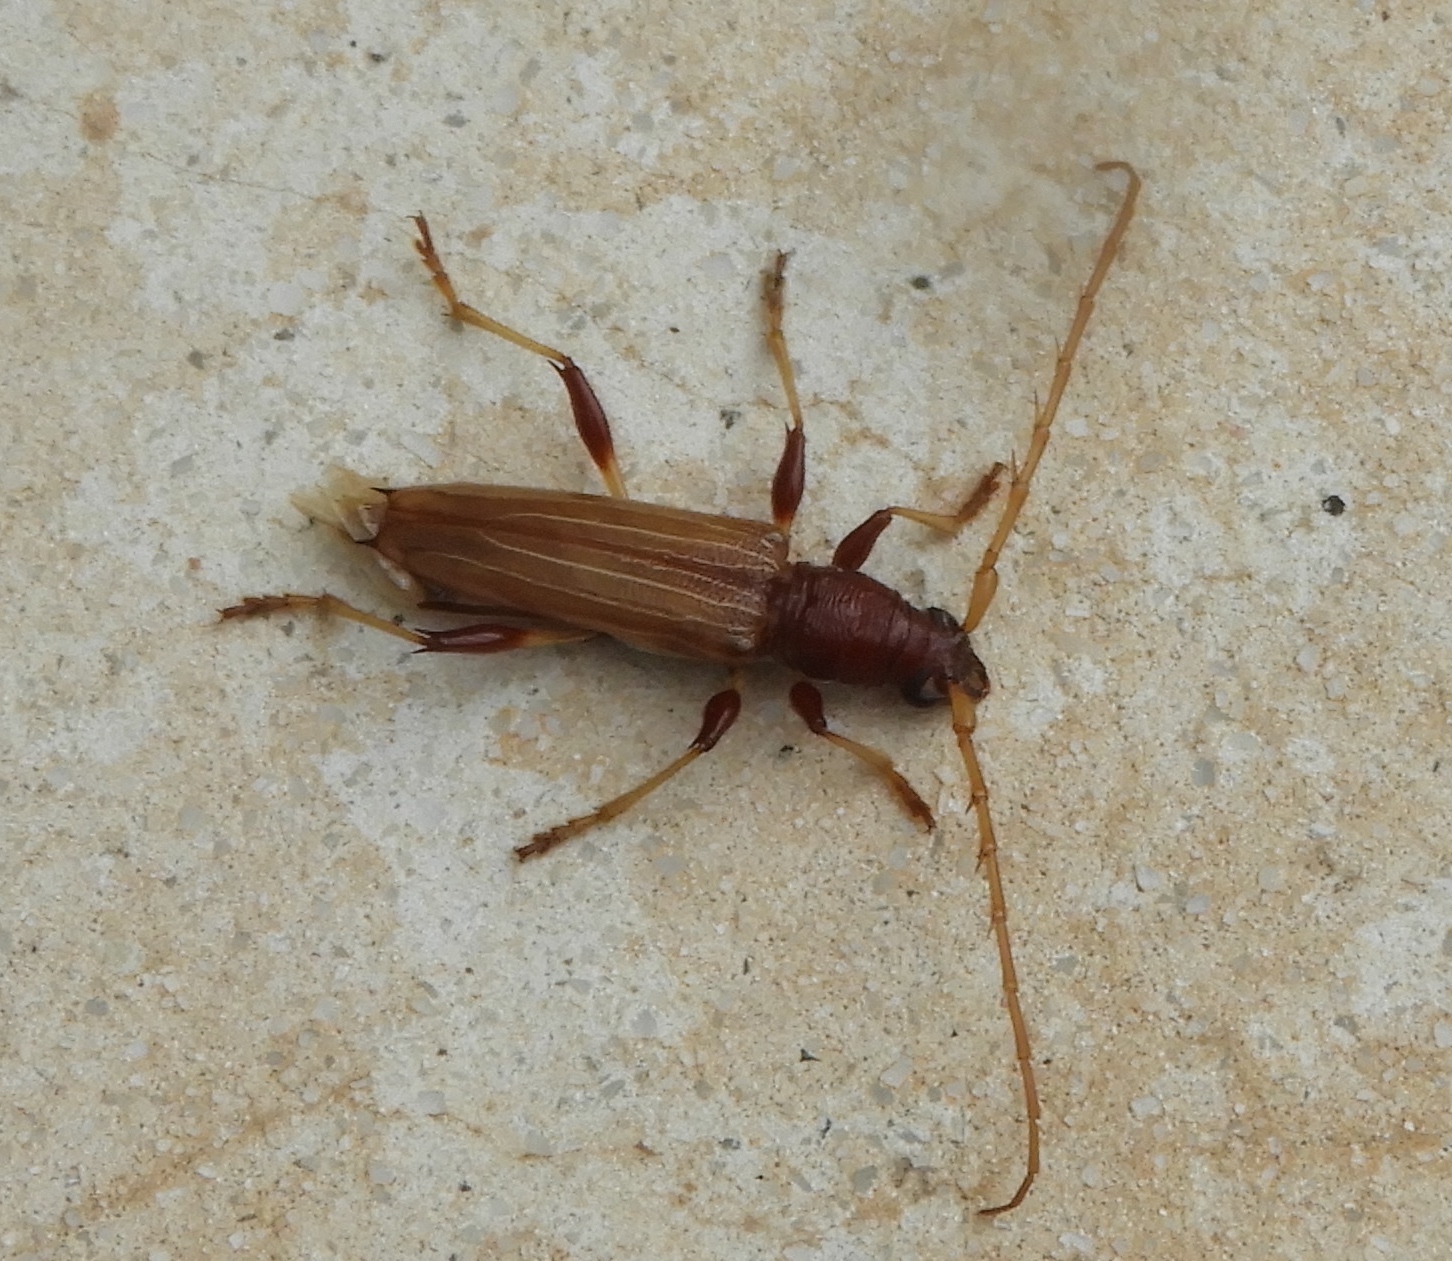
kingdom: Animalia
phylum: Arthropoda
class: Insecta
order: Coleoptera
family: Cerambycidae
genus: Stizocera
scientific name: Stizocera plicicollis
